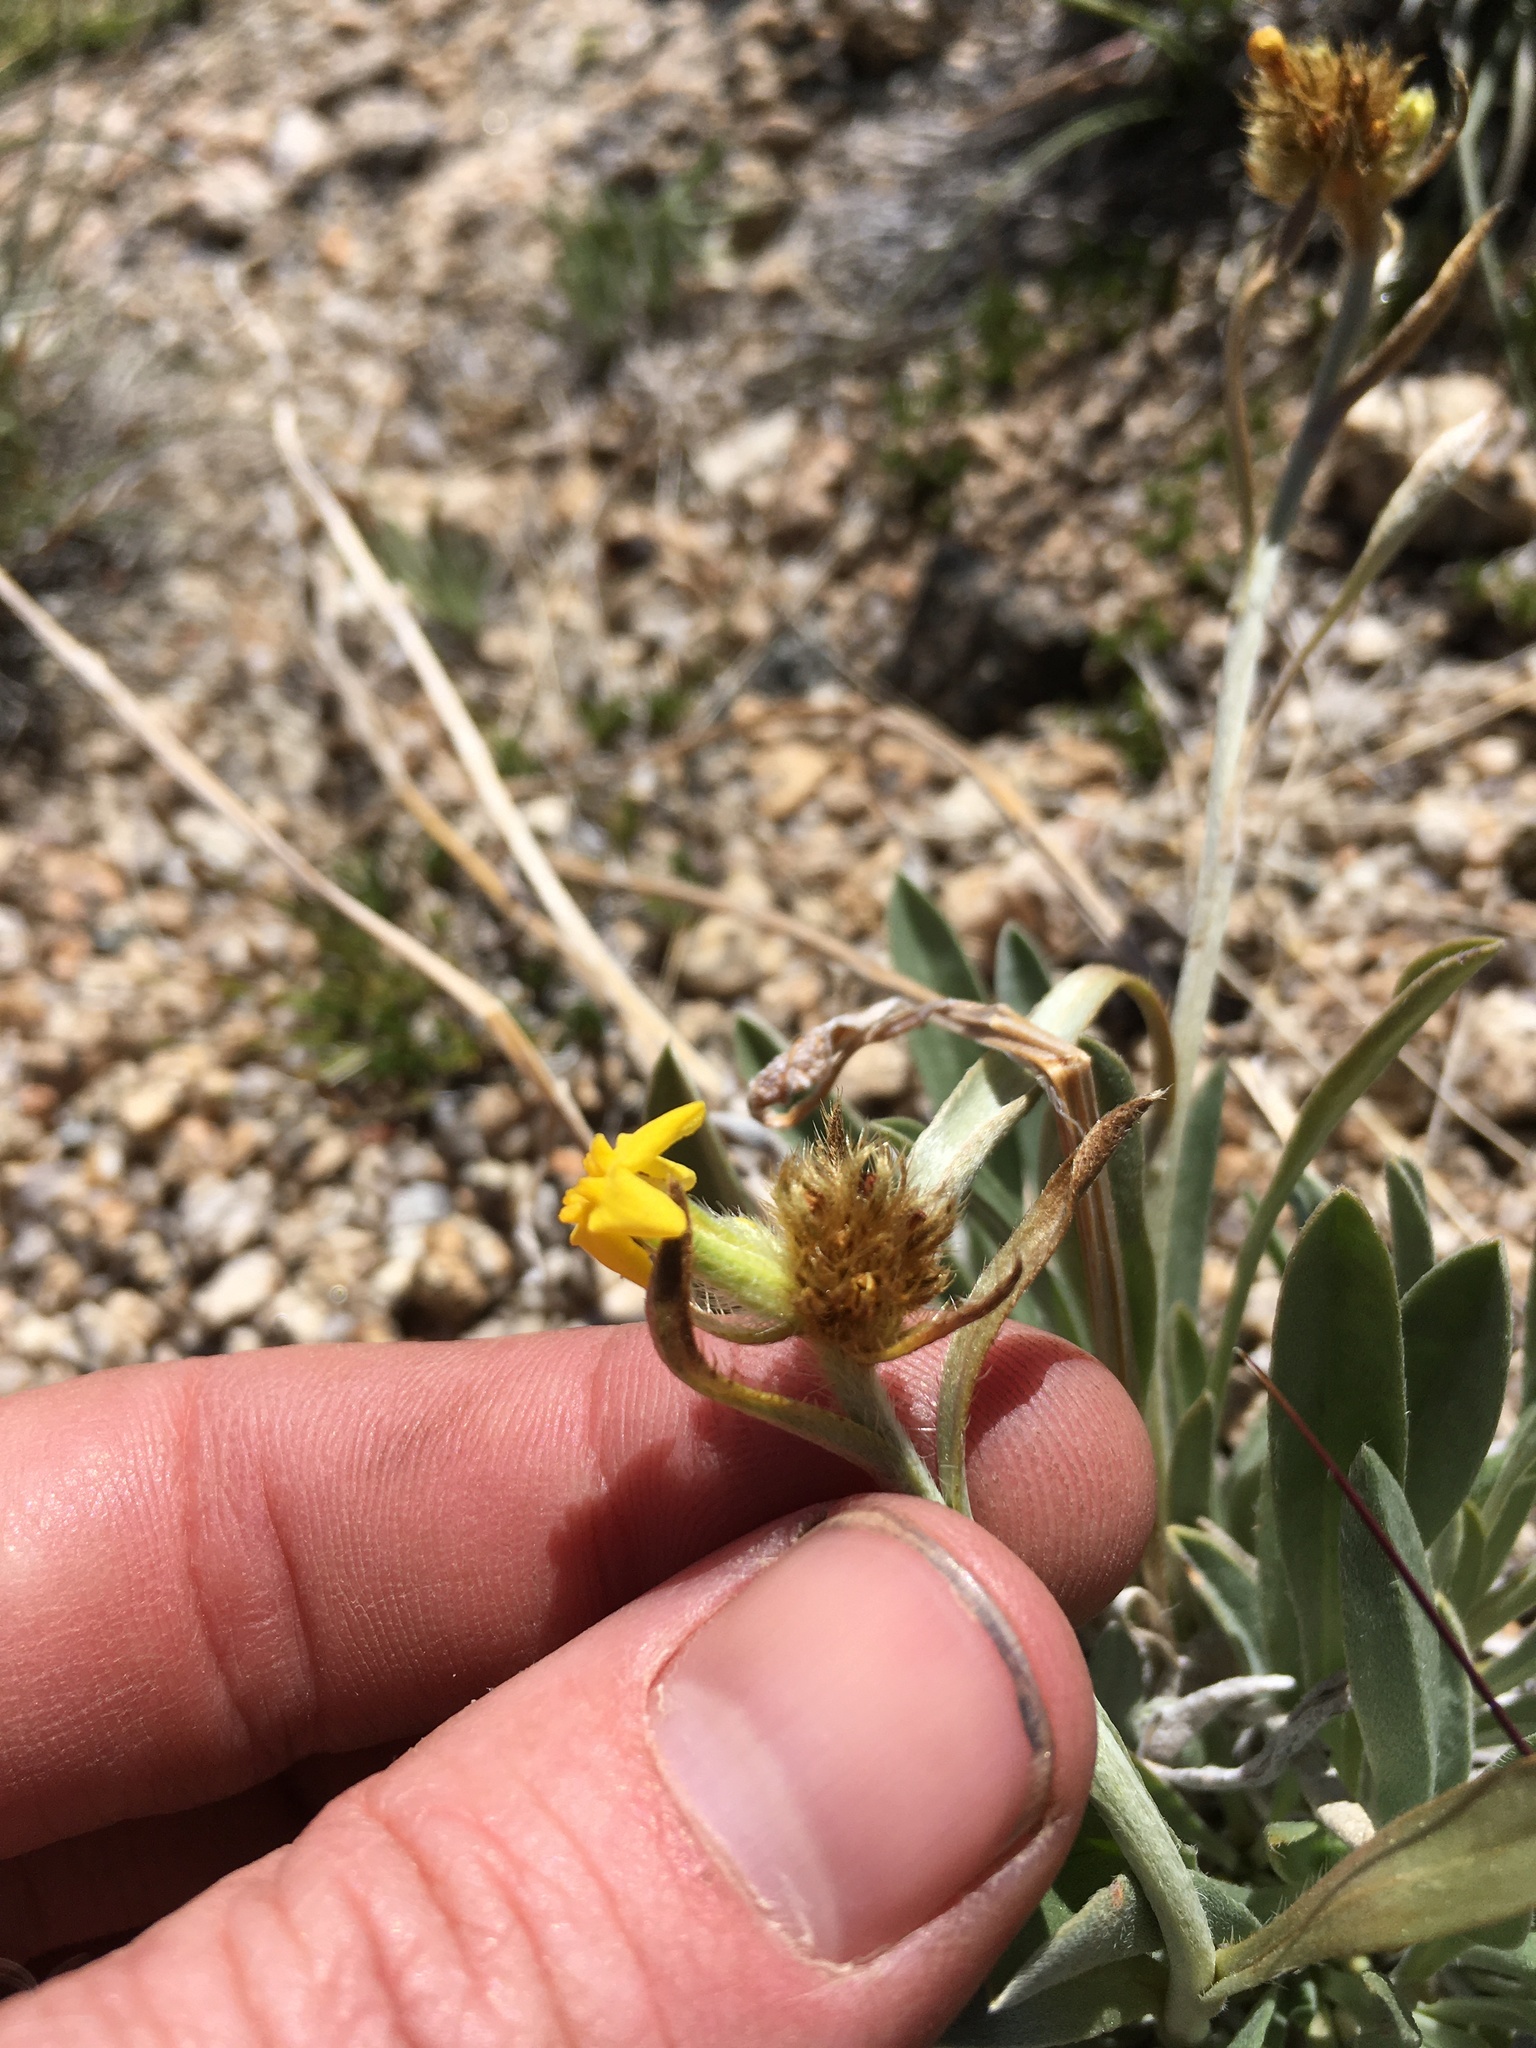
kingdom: Plantae
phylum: Tracheophyta
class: Magnoliopsida
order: Boraginales
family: Boraginaceae
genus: Oreocarya
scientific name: Oreocarya confertiflora
